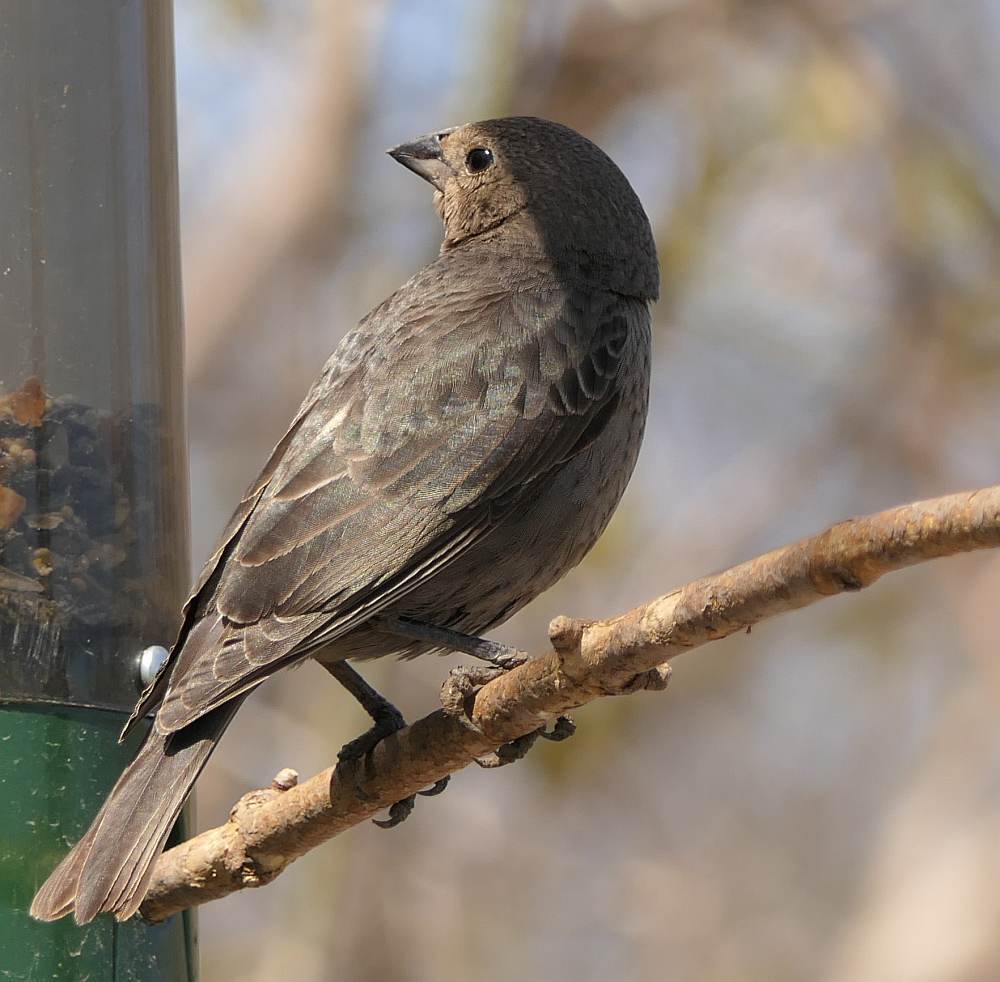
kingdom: Animalia
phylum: Chordata
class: Aves
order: Passeriformes
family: Icteridae
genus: Molothrus
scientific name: Molothrus ater
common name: Brown-headed cowbird
